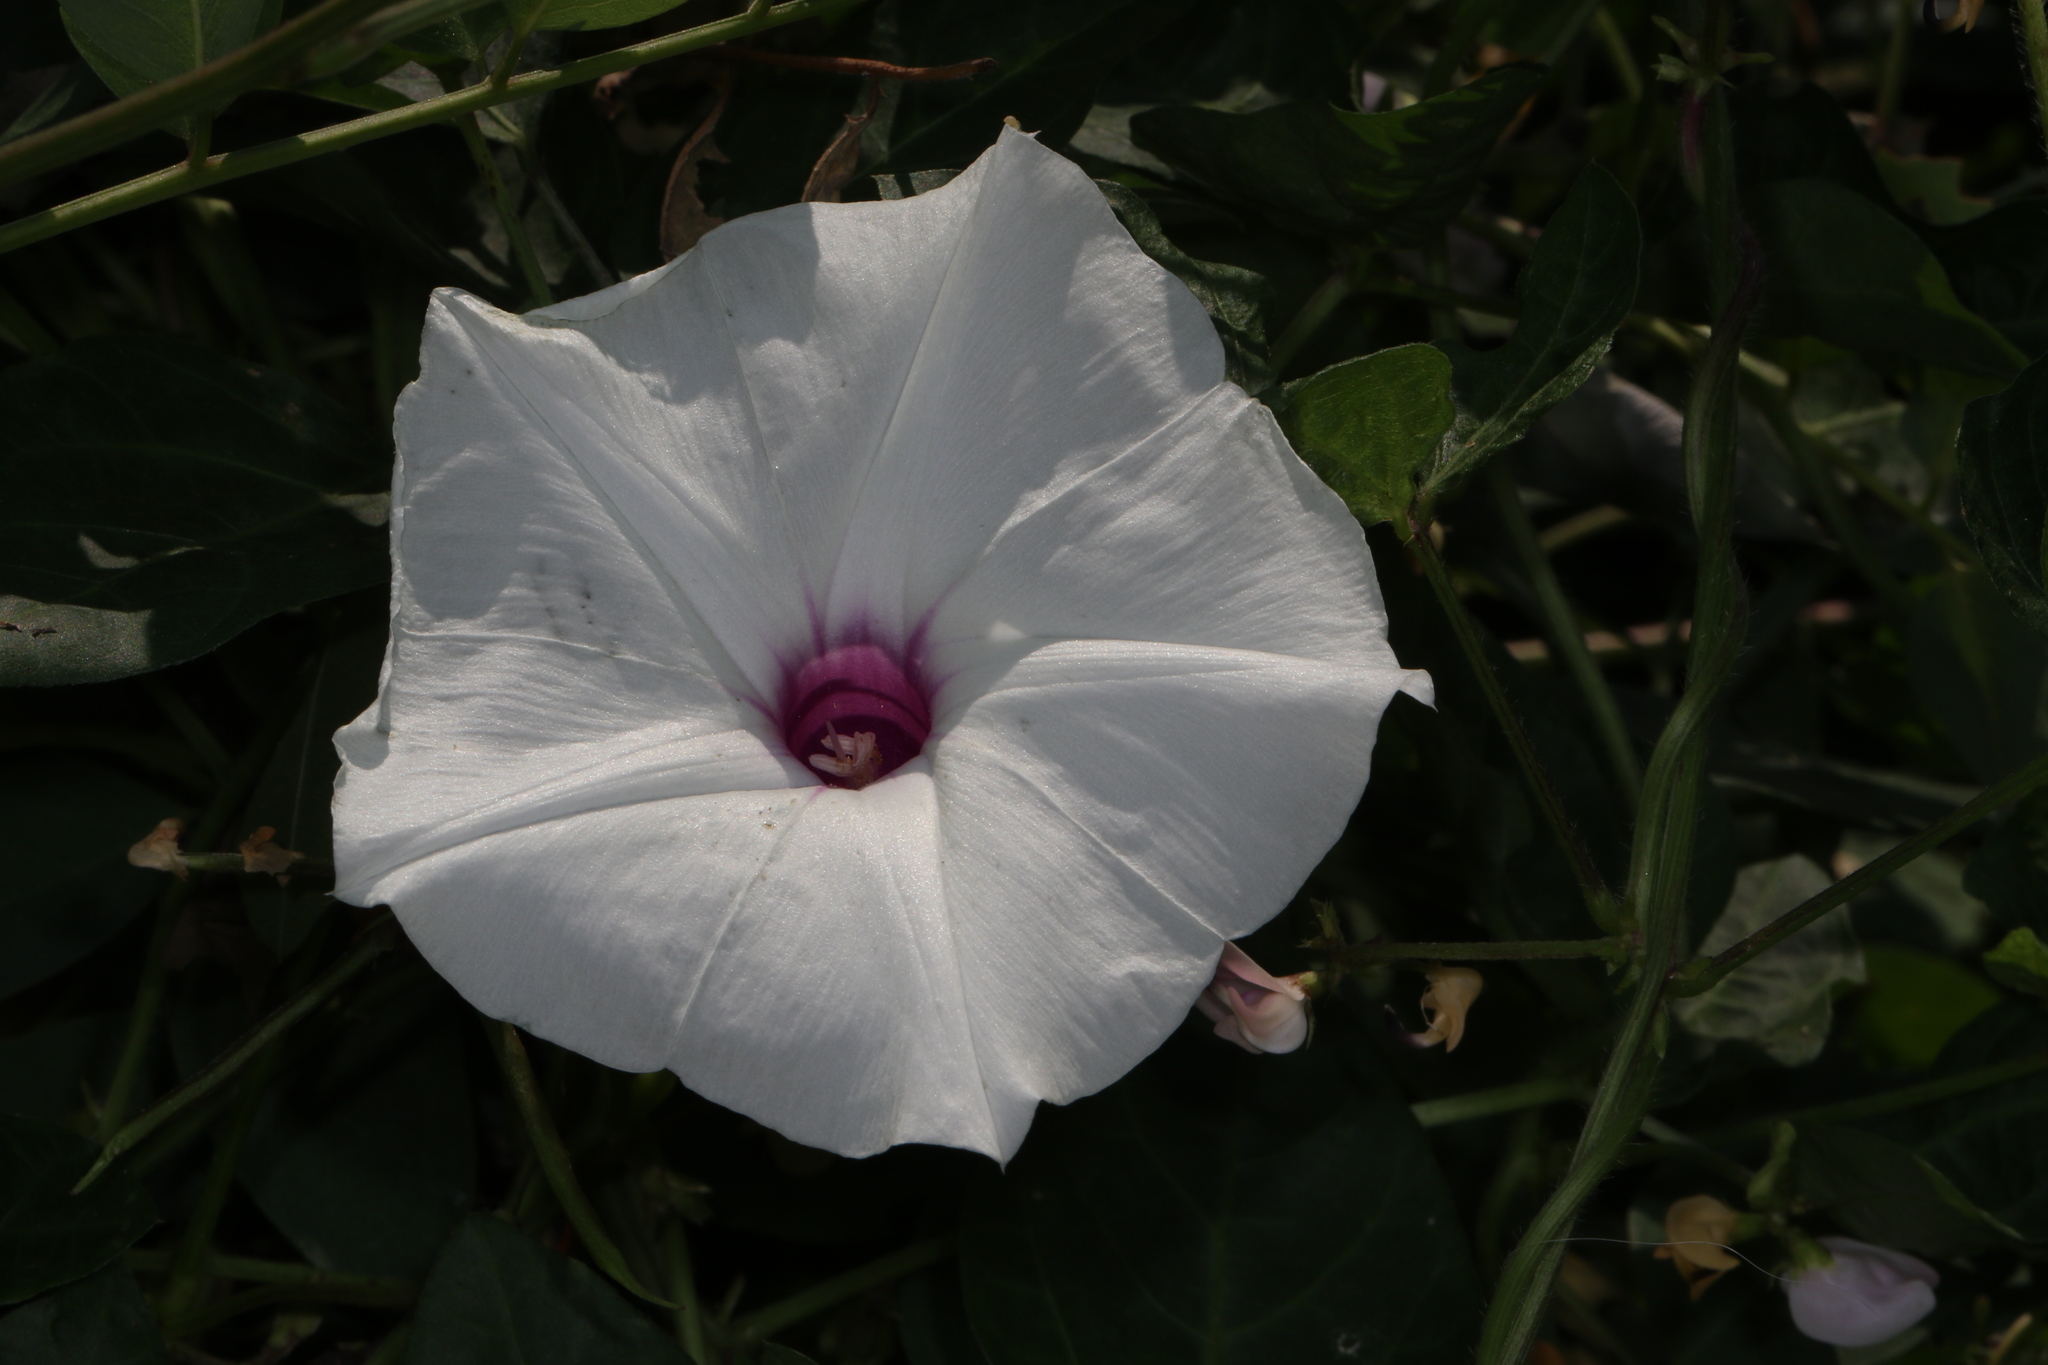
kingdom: Plantae
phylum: Tracheophyta
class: Magnoliopsida
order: Solanales
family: Convolvulaceae
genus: Ipomoea
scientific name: Ipomoea pandurata
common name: Man-of-the-earth
